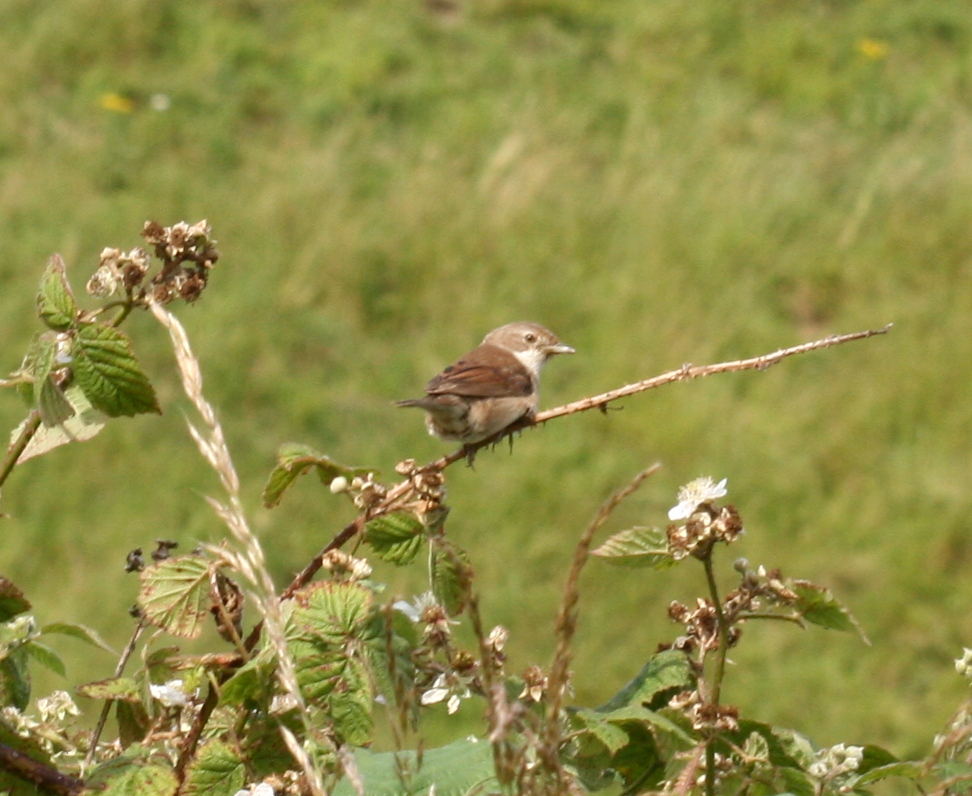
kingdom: Animalia
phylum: Chordata
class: Aves
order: Passeriformes
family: Sylviidae
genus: Sylvia
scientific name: Sylvia communis
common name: Common whitethroat
